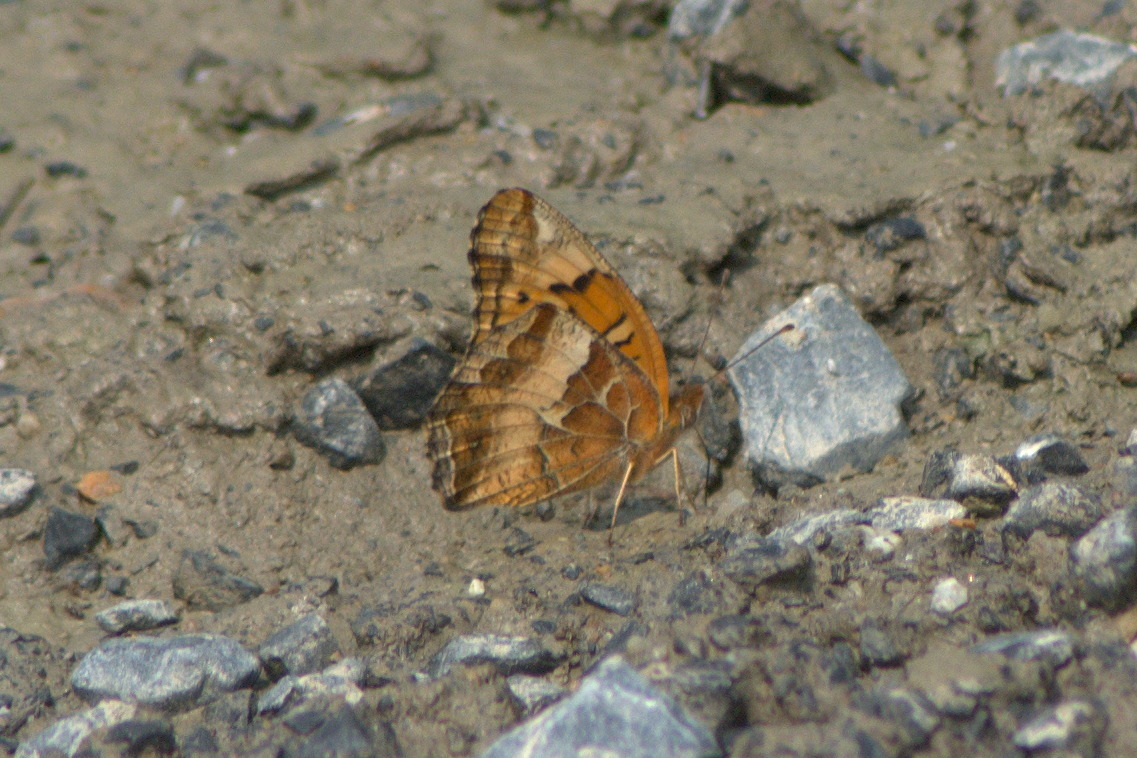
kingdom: Animalia
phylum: Arthropoda
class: Insecta
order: Lepidoptera
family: Nymphalidae
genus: Euptoieta
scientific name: Euptoieta claudia
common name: Variegated fritillary
